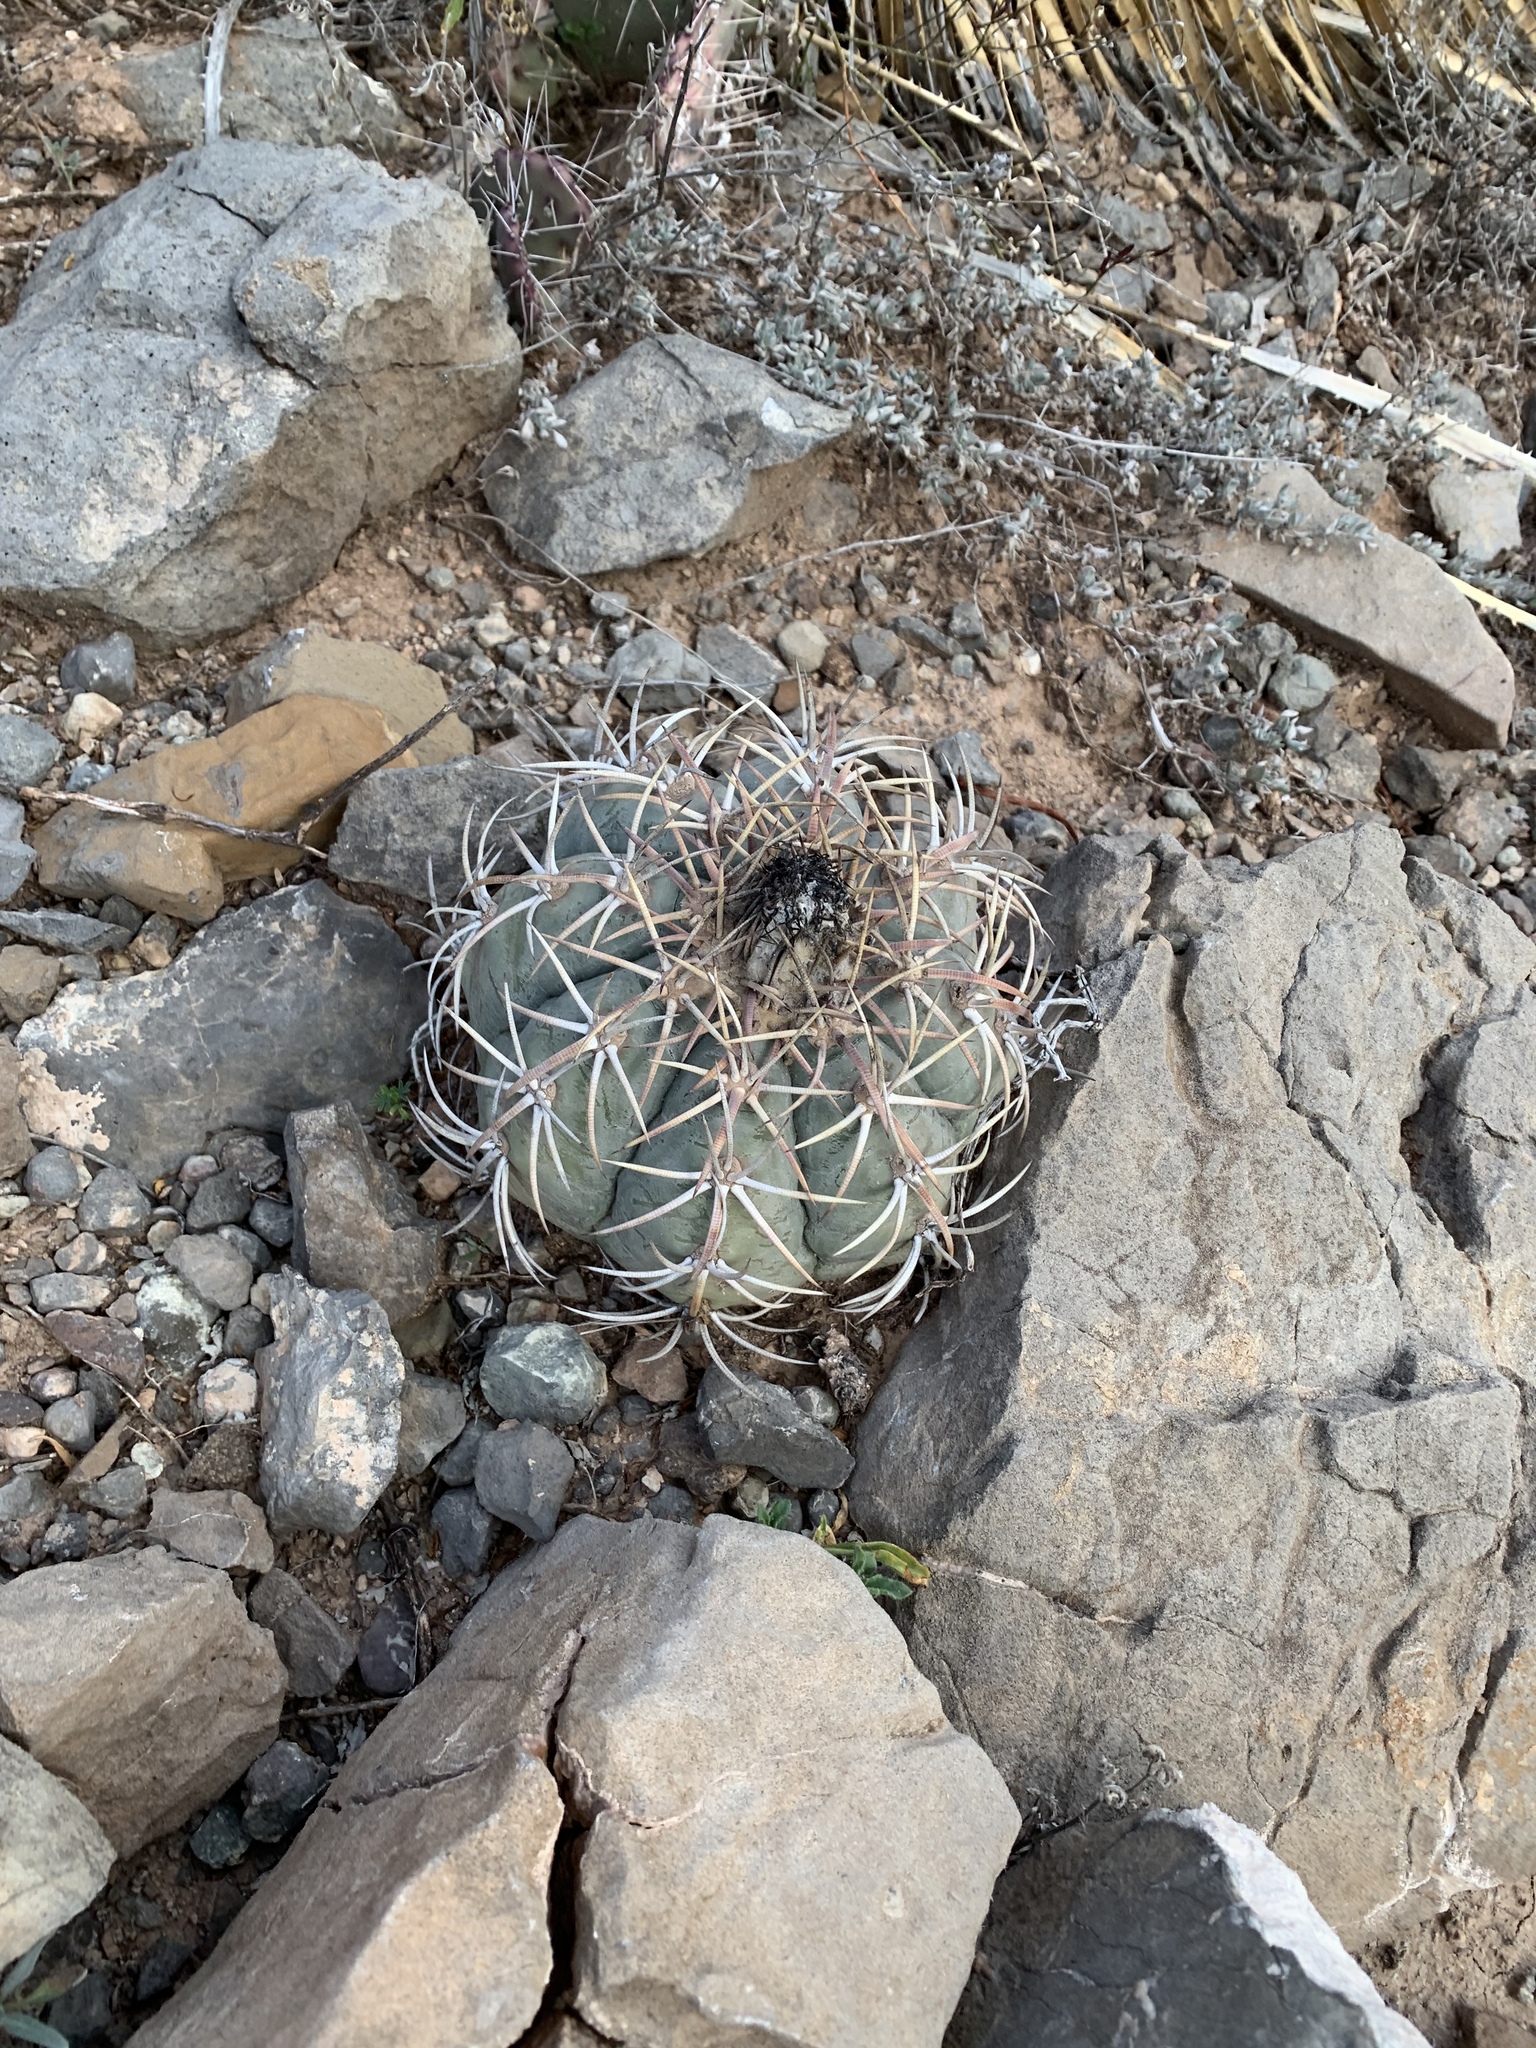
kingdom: Plantae
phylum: Tracheophyta
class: Magnoliopsida
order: Caryophyllales
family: Cactaceae
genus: Echinocactus
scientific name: Echinocactus horizonthalonius
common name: Devilshead
